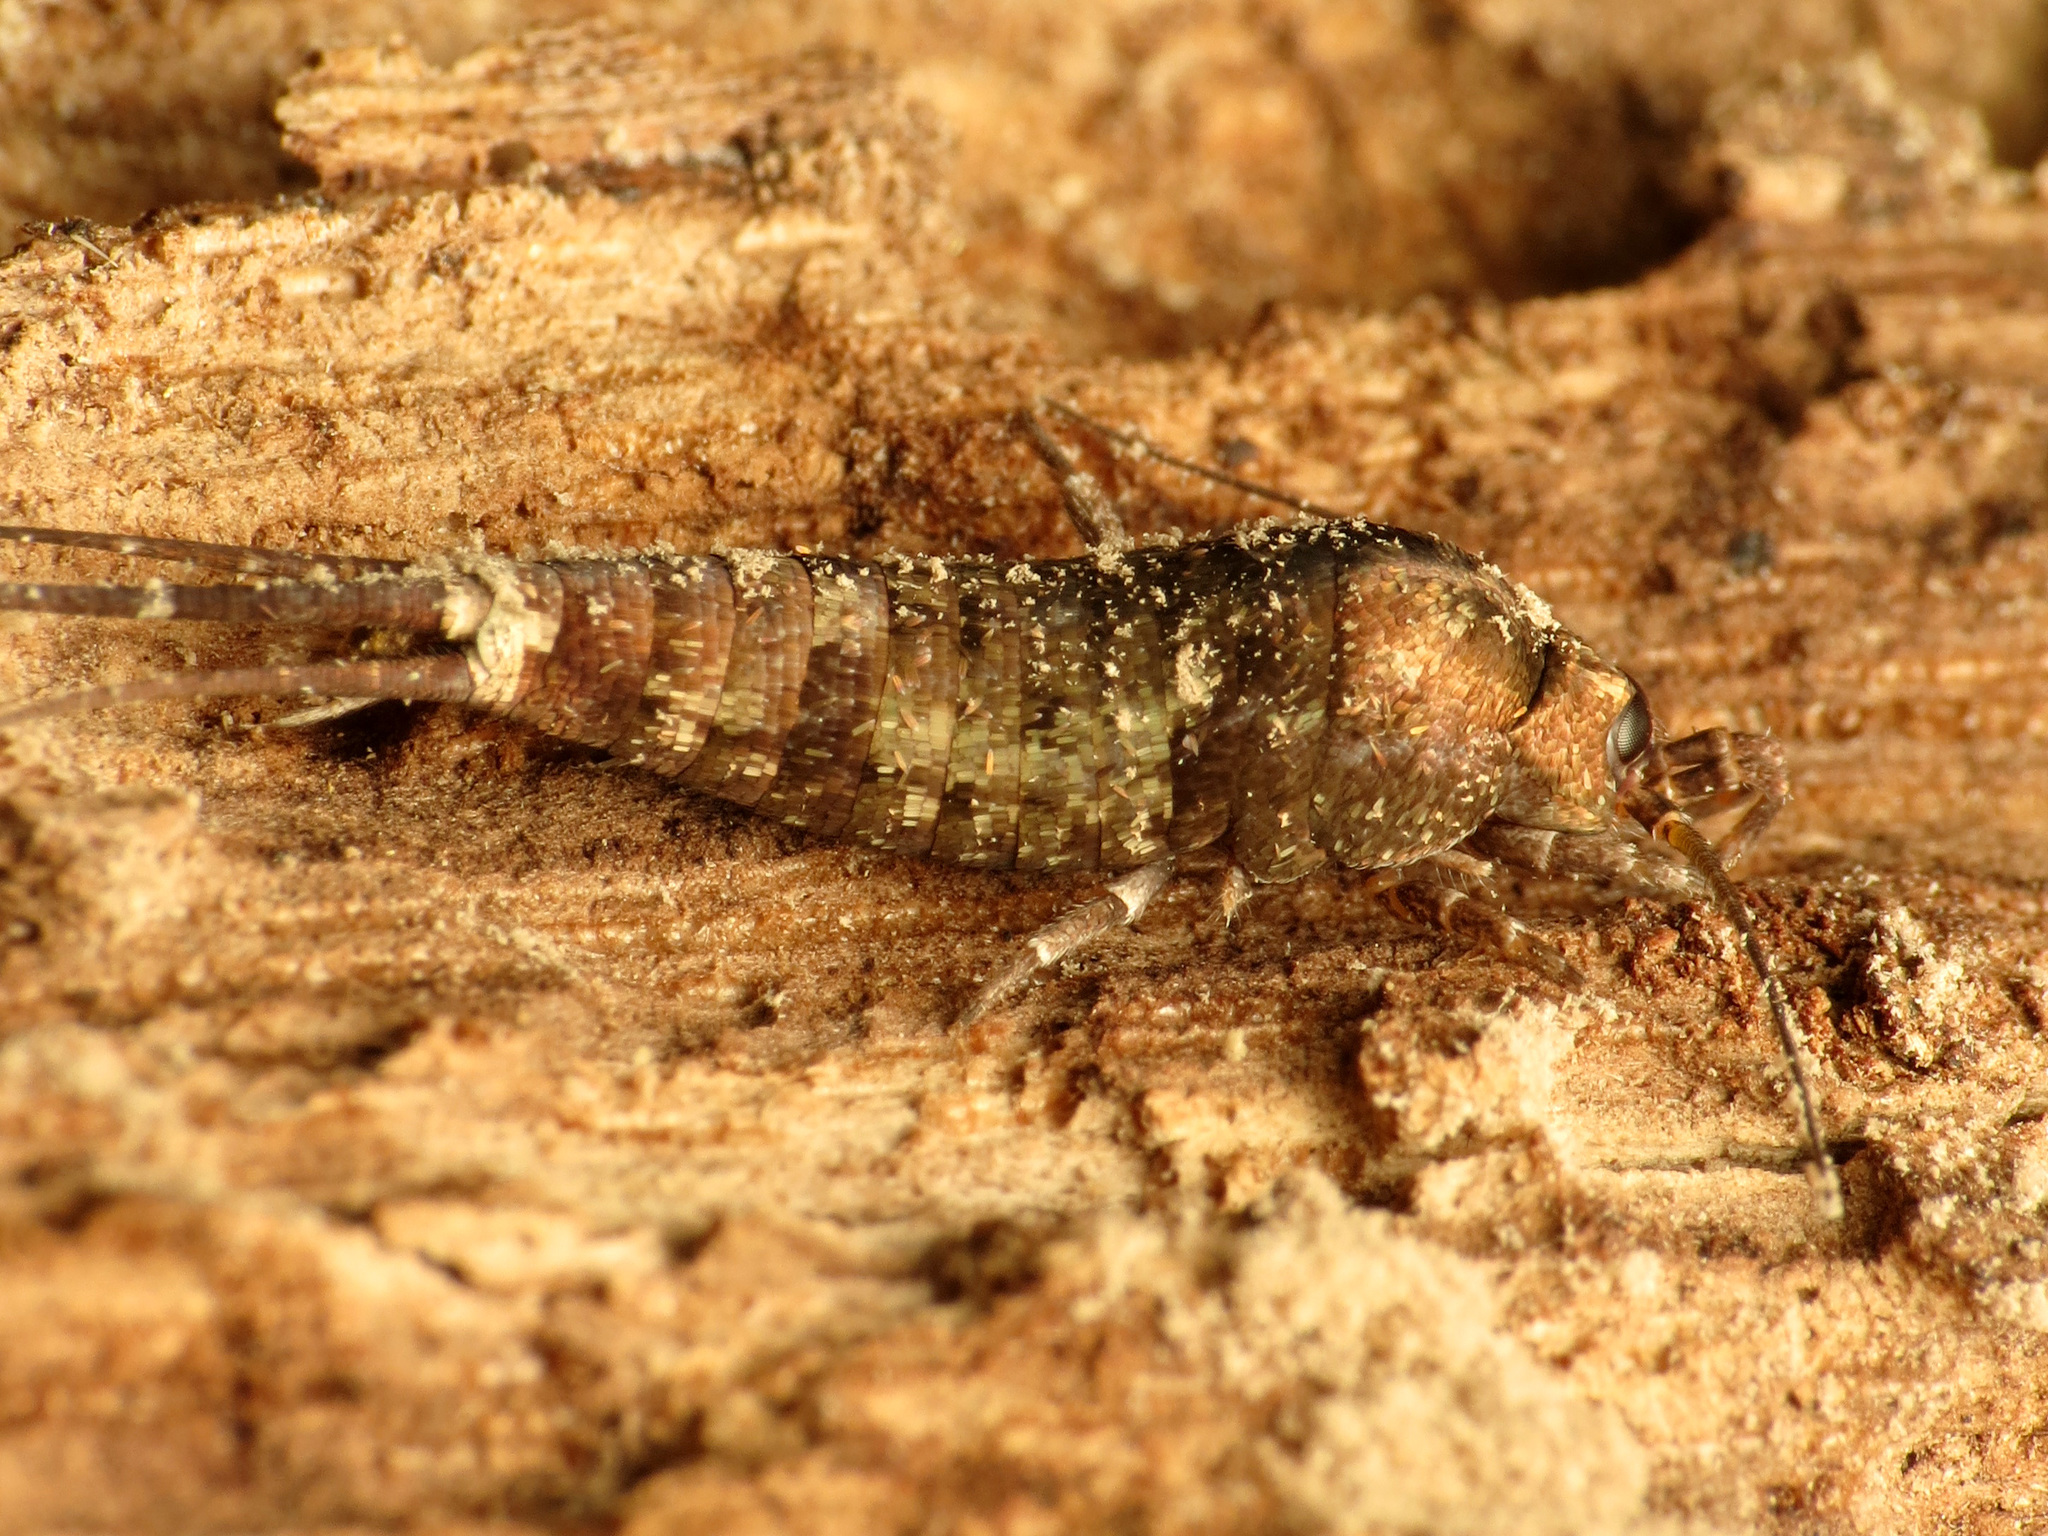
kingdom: Animalia
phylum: Arthropoda
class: Insecta
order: Archaeognatha
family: Machilidae
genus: Pedetontus
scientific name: Pedetontus saltator
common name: Jumping bristletail
